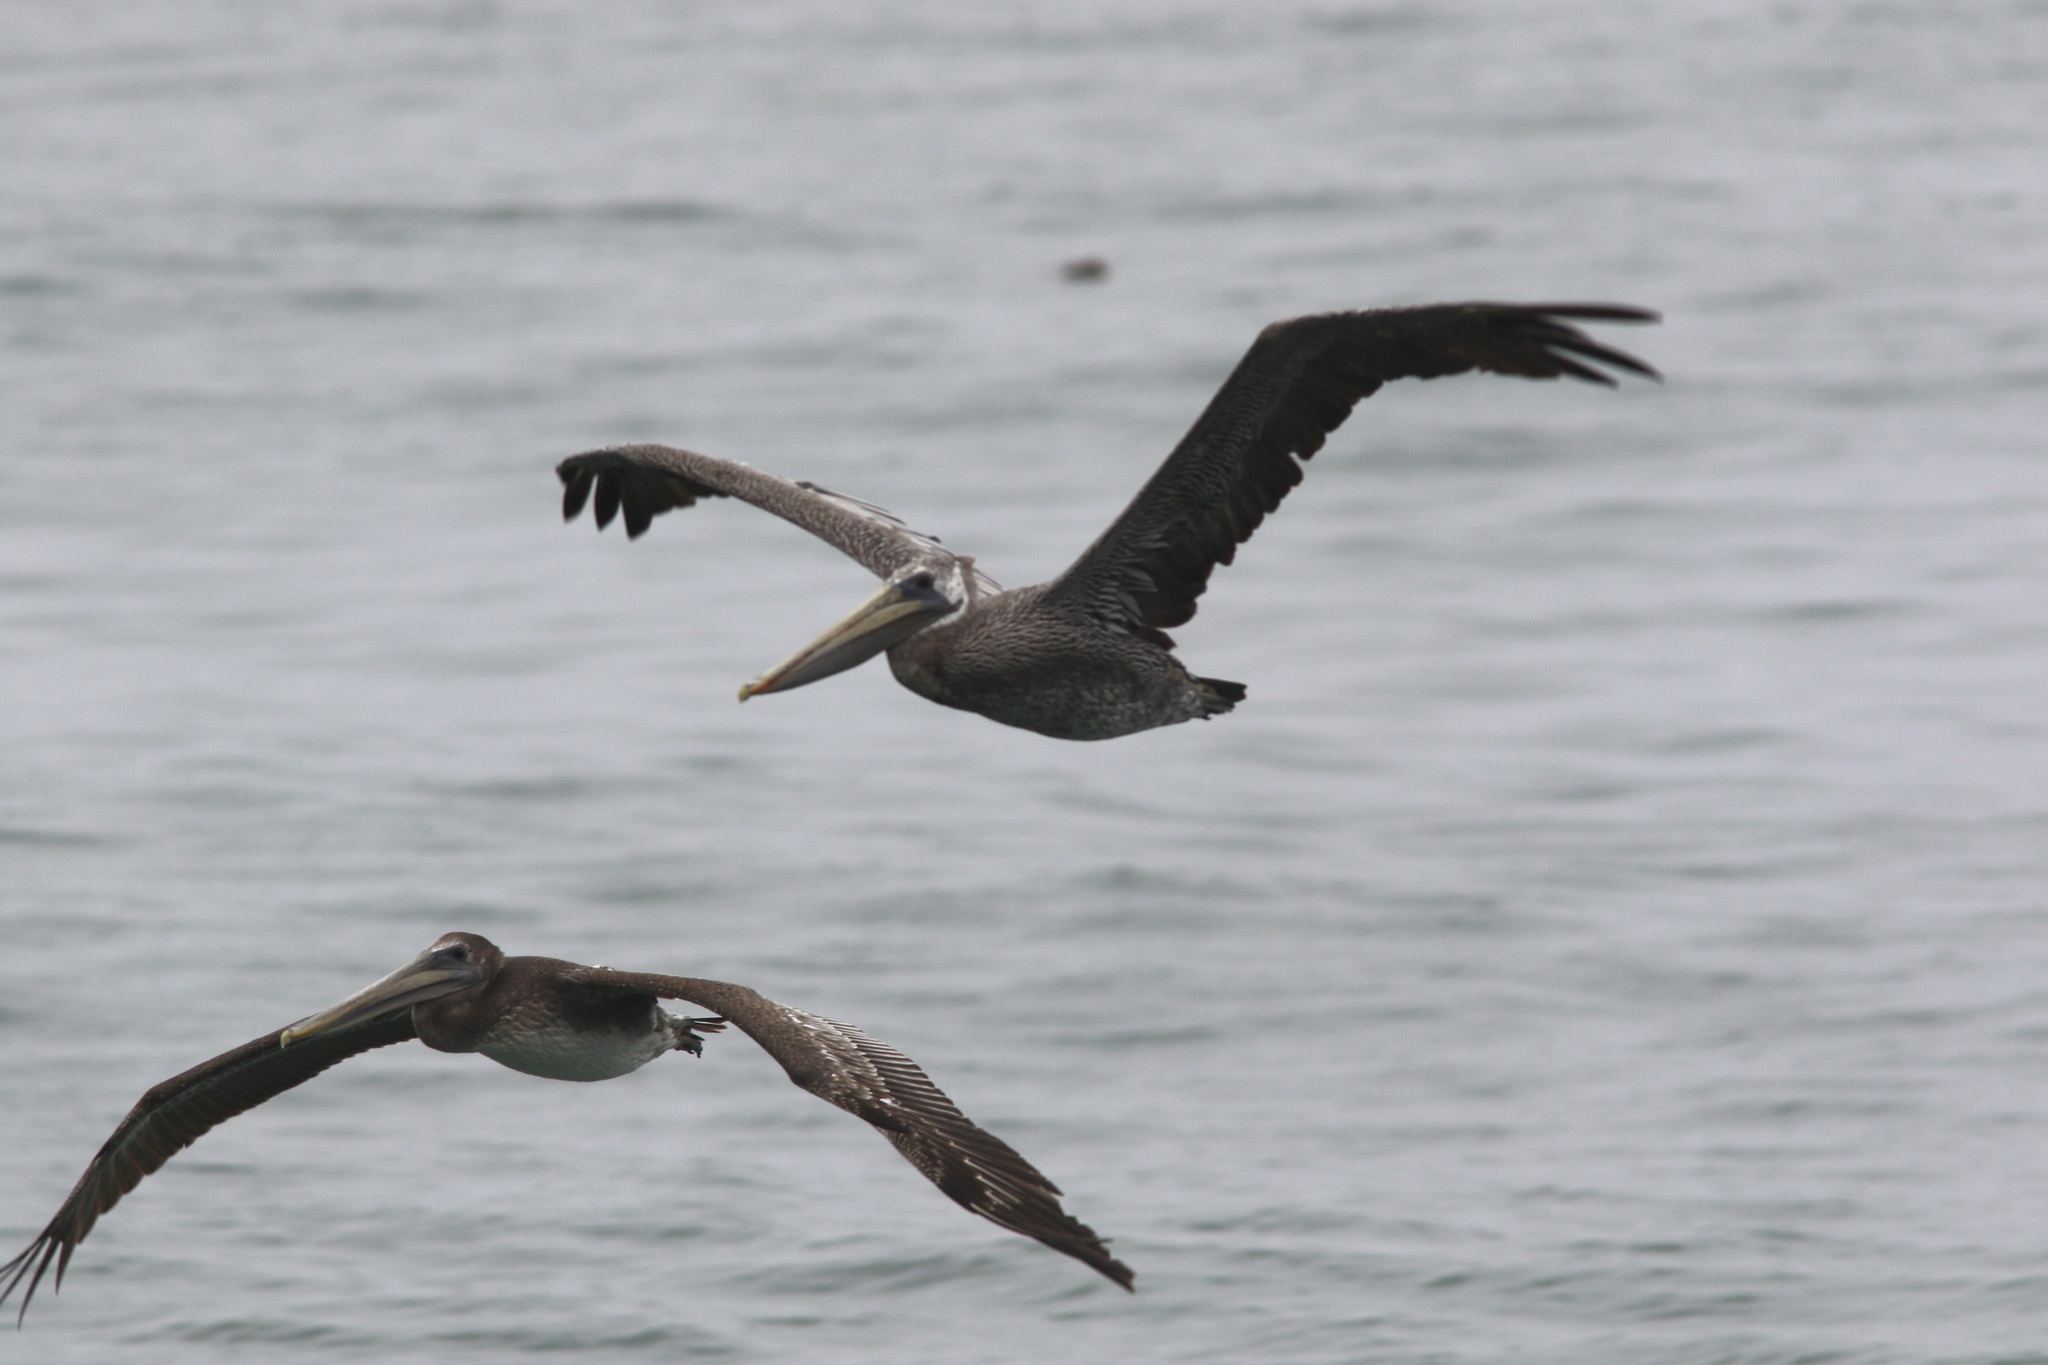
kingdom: Animalia
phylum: Chordata
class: Aves
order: Pelecaniformes
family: Pelecanidae
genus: Pelecanus
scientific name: Pelecanus occidentalis
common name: Brown pelican
